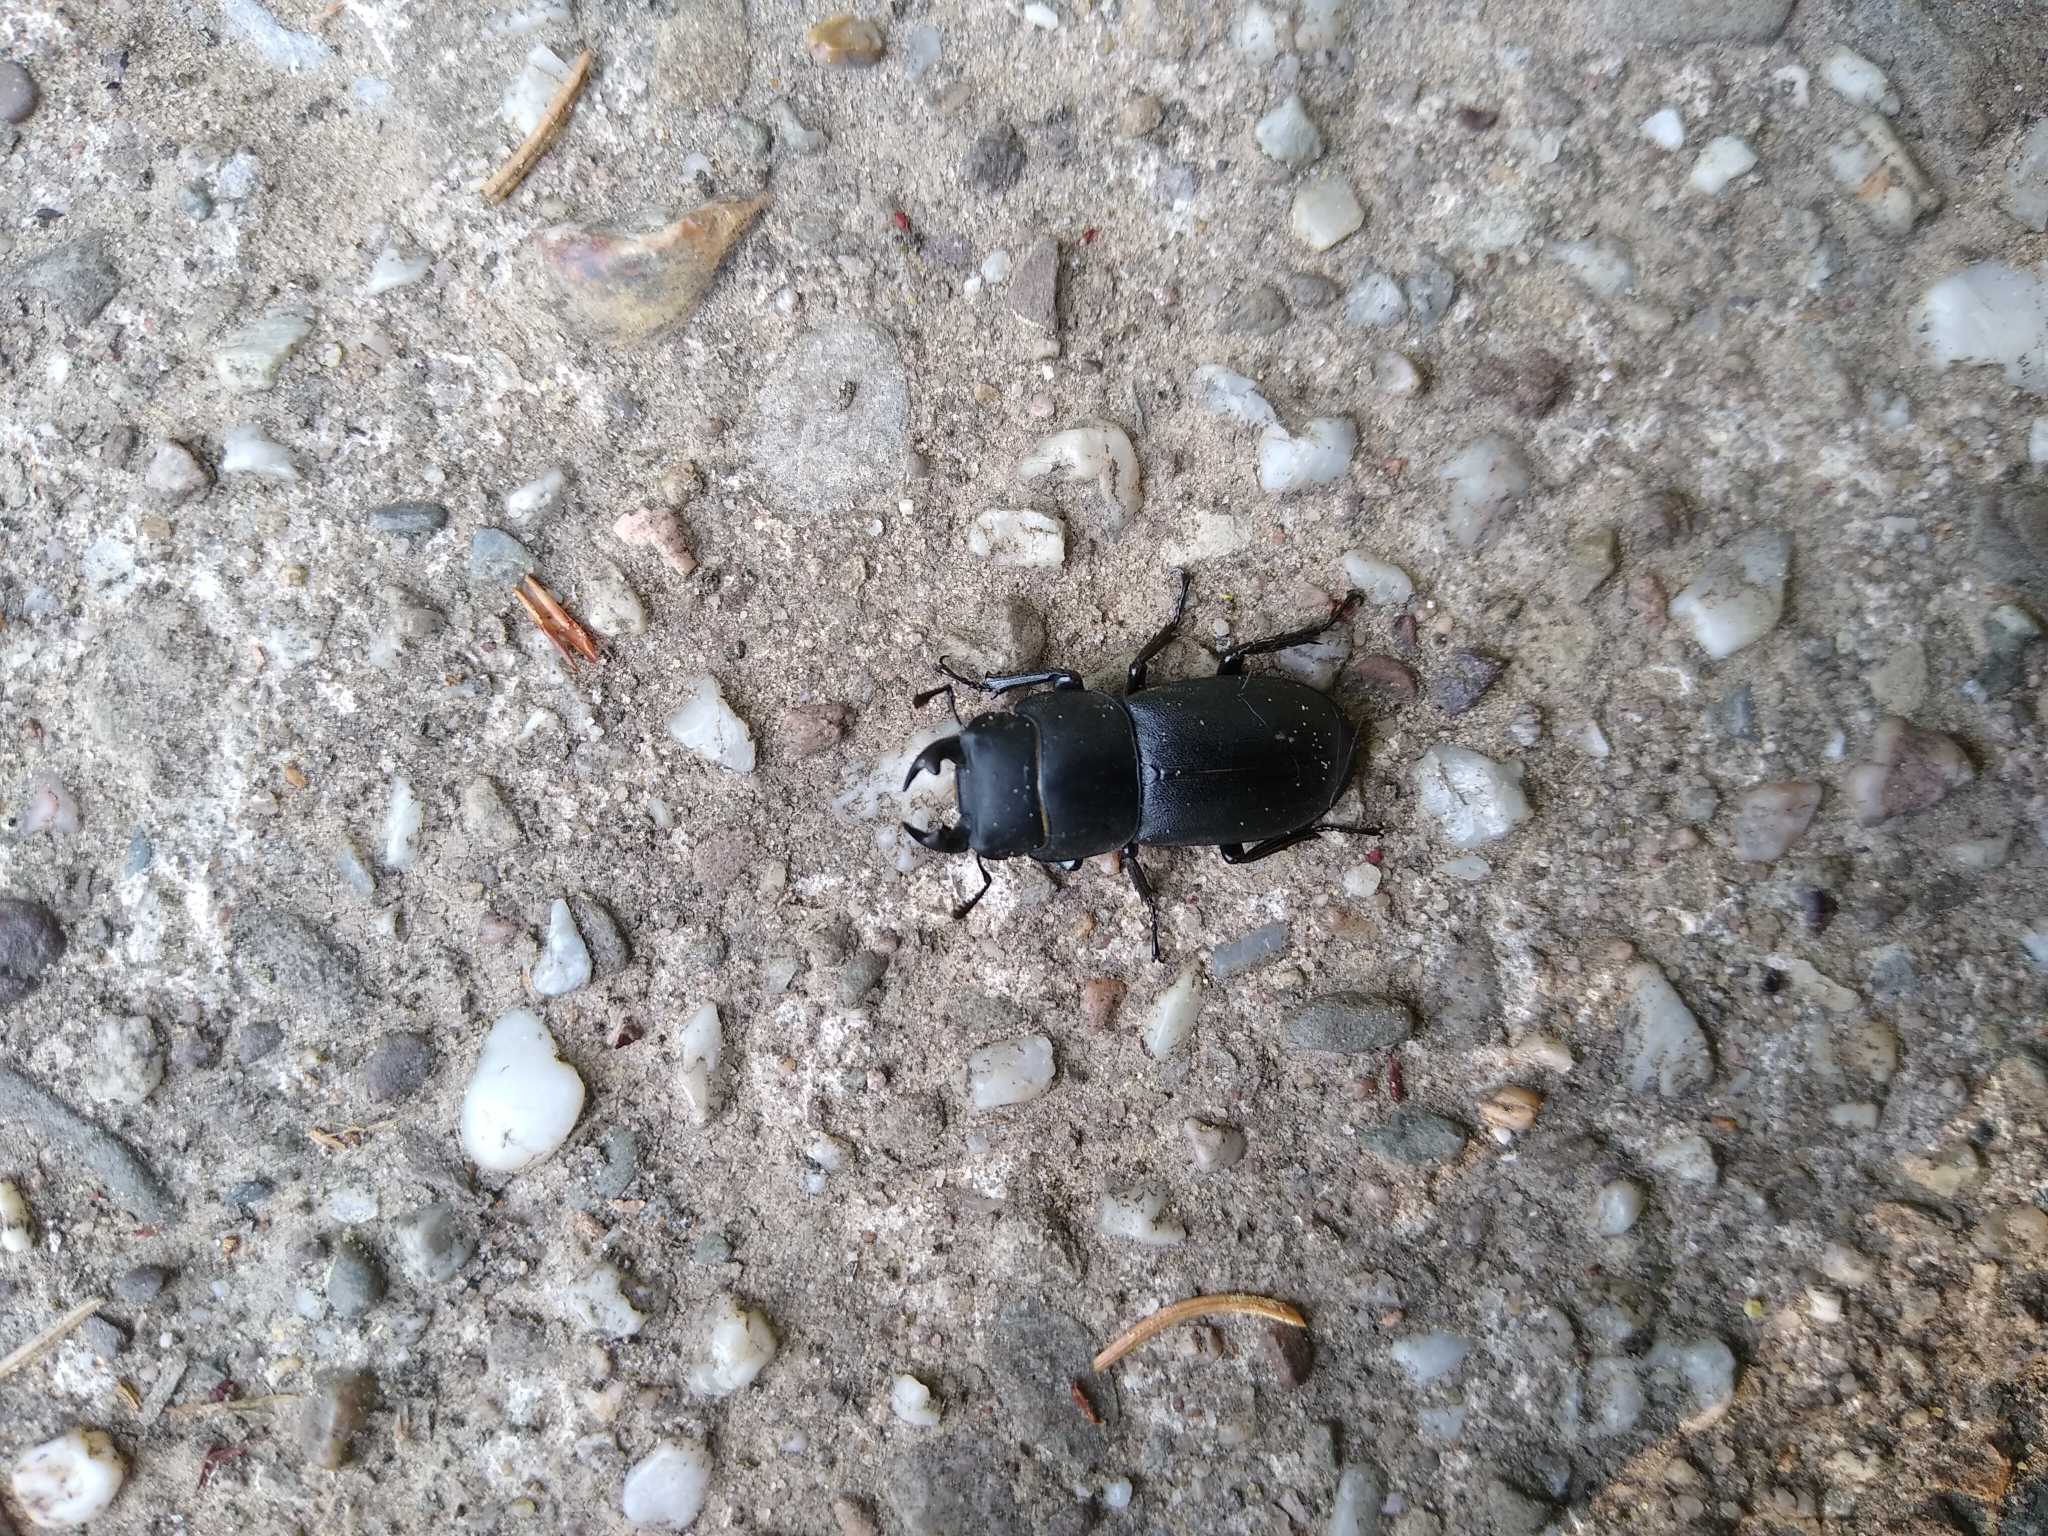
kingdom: Animalia
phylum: Arthropoda
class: Insecta
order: Coleoptera
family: Lucanidae
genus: Dorcus
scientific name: Dorcus parallelipipedus
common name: Lesser stag beetle
